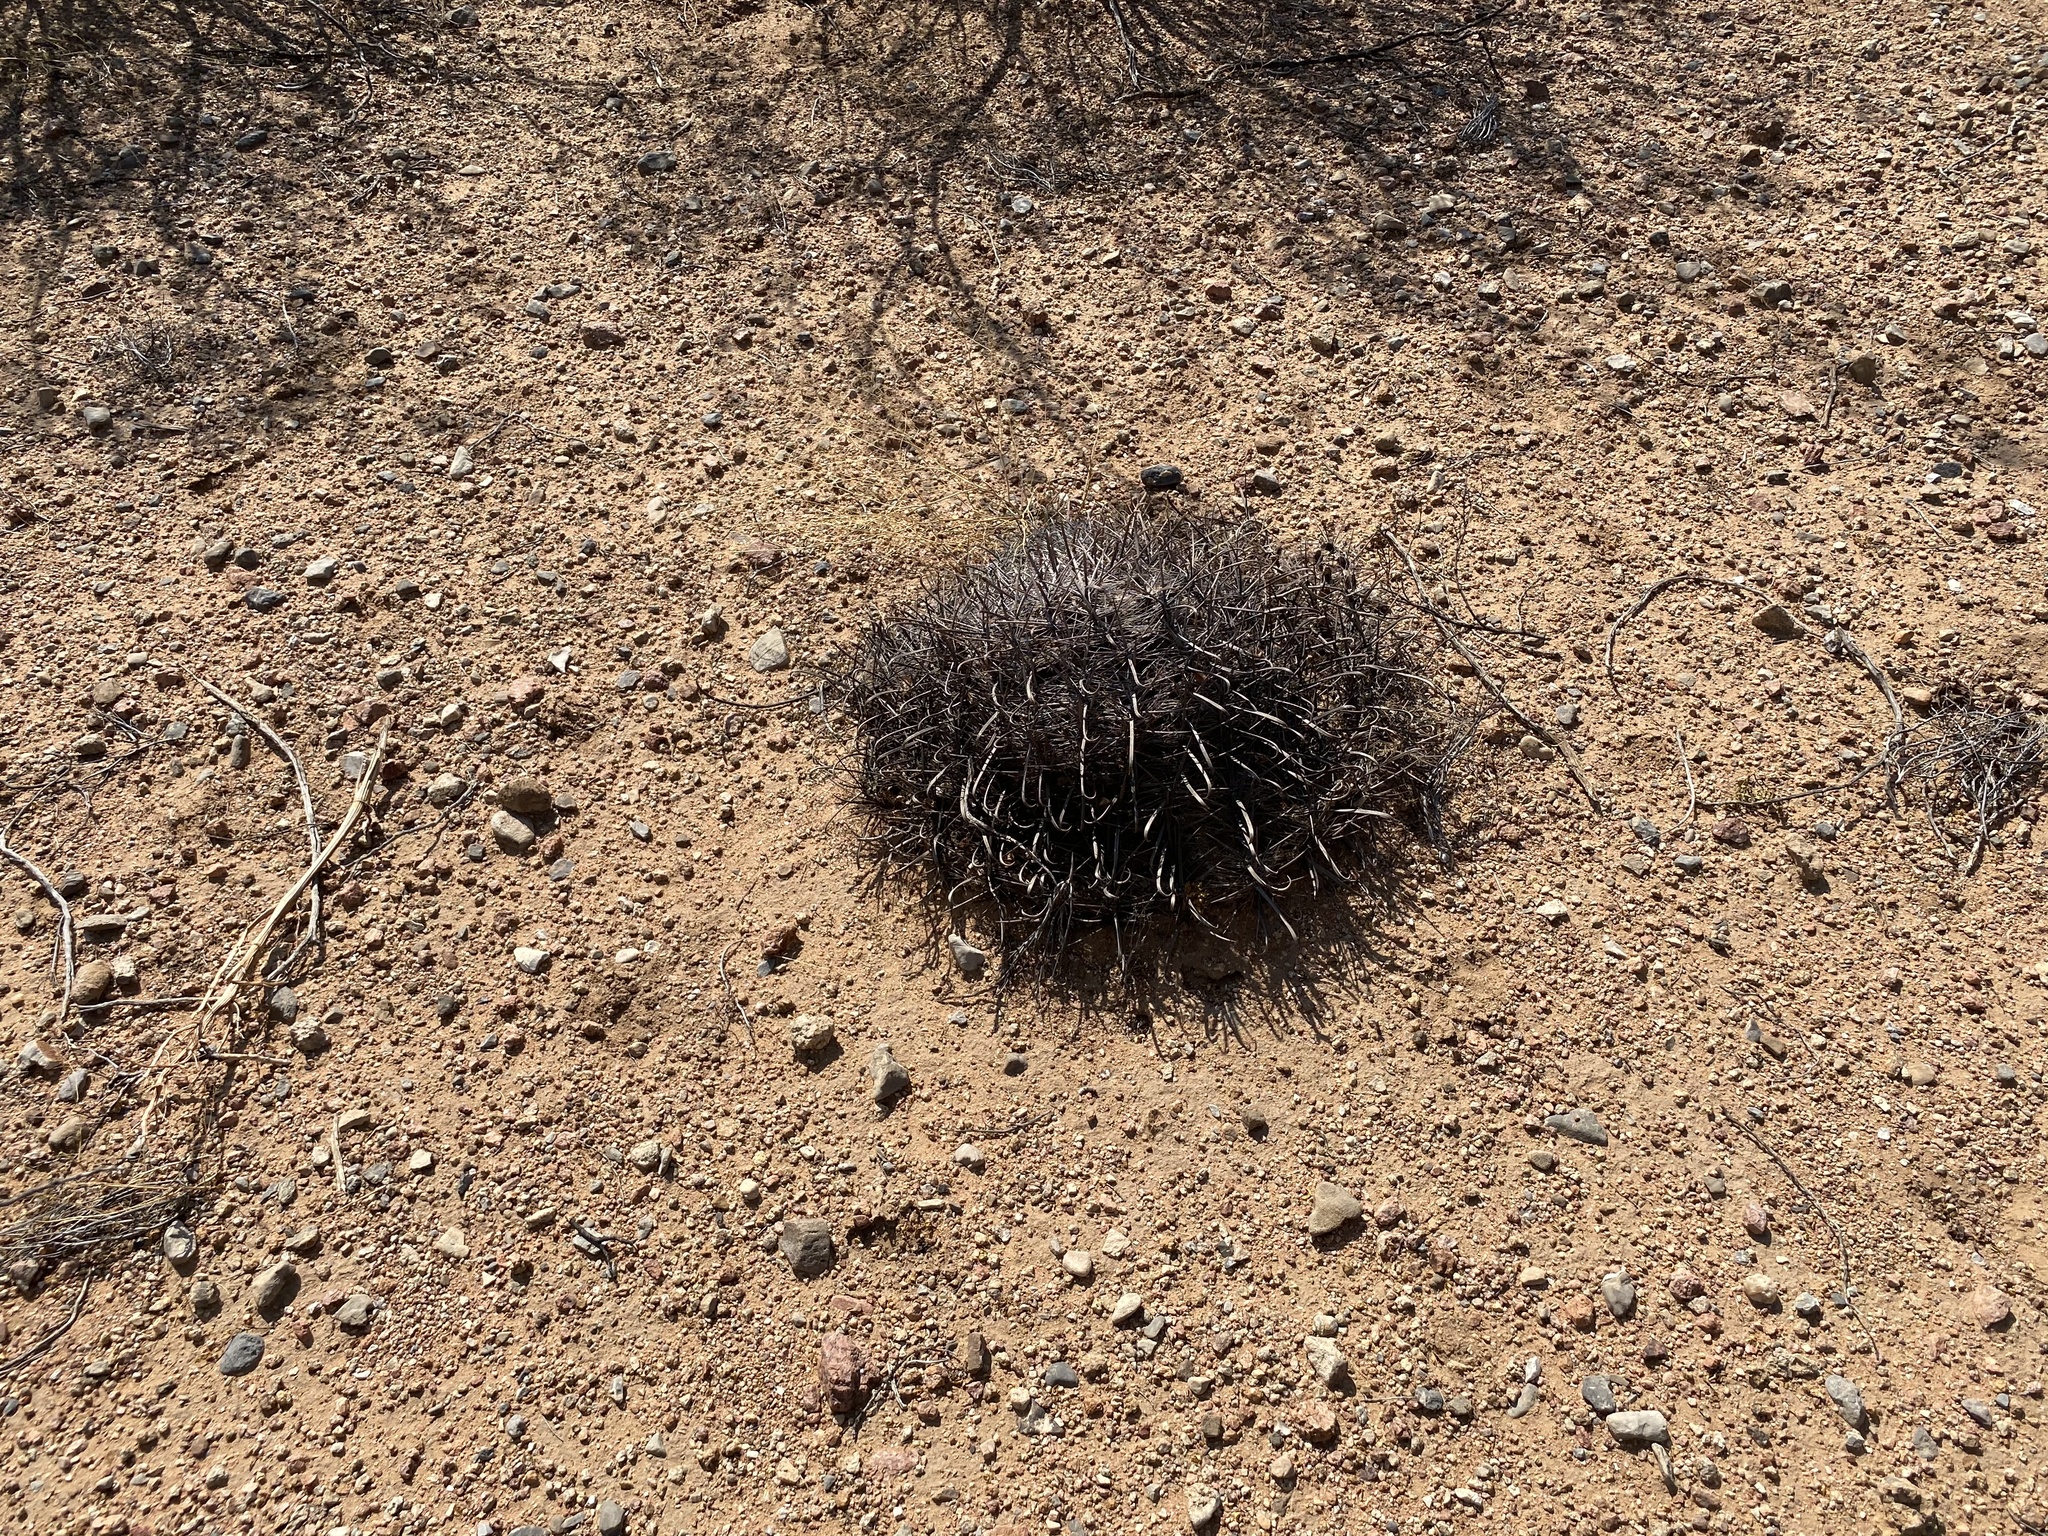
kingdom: Plantae
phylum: Tracheophyta
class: Magnoliopsida
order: Caryophyllales
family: Cactaceae
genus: Ferocactus
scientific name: Ferocactus wislizeni
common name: Candy barrel cactus
